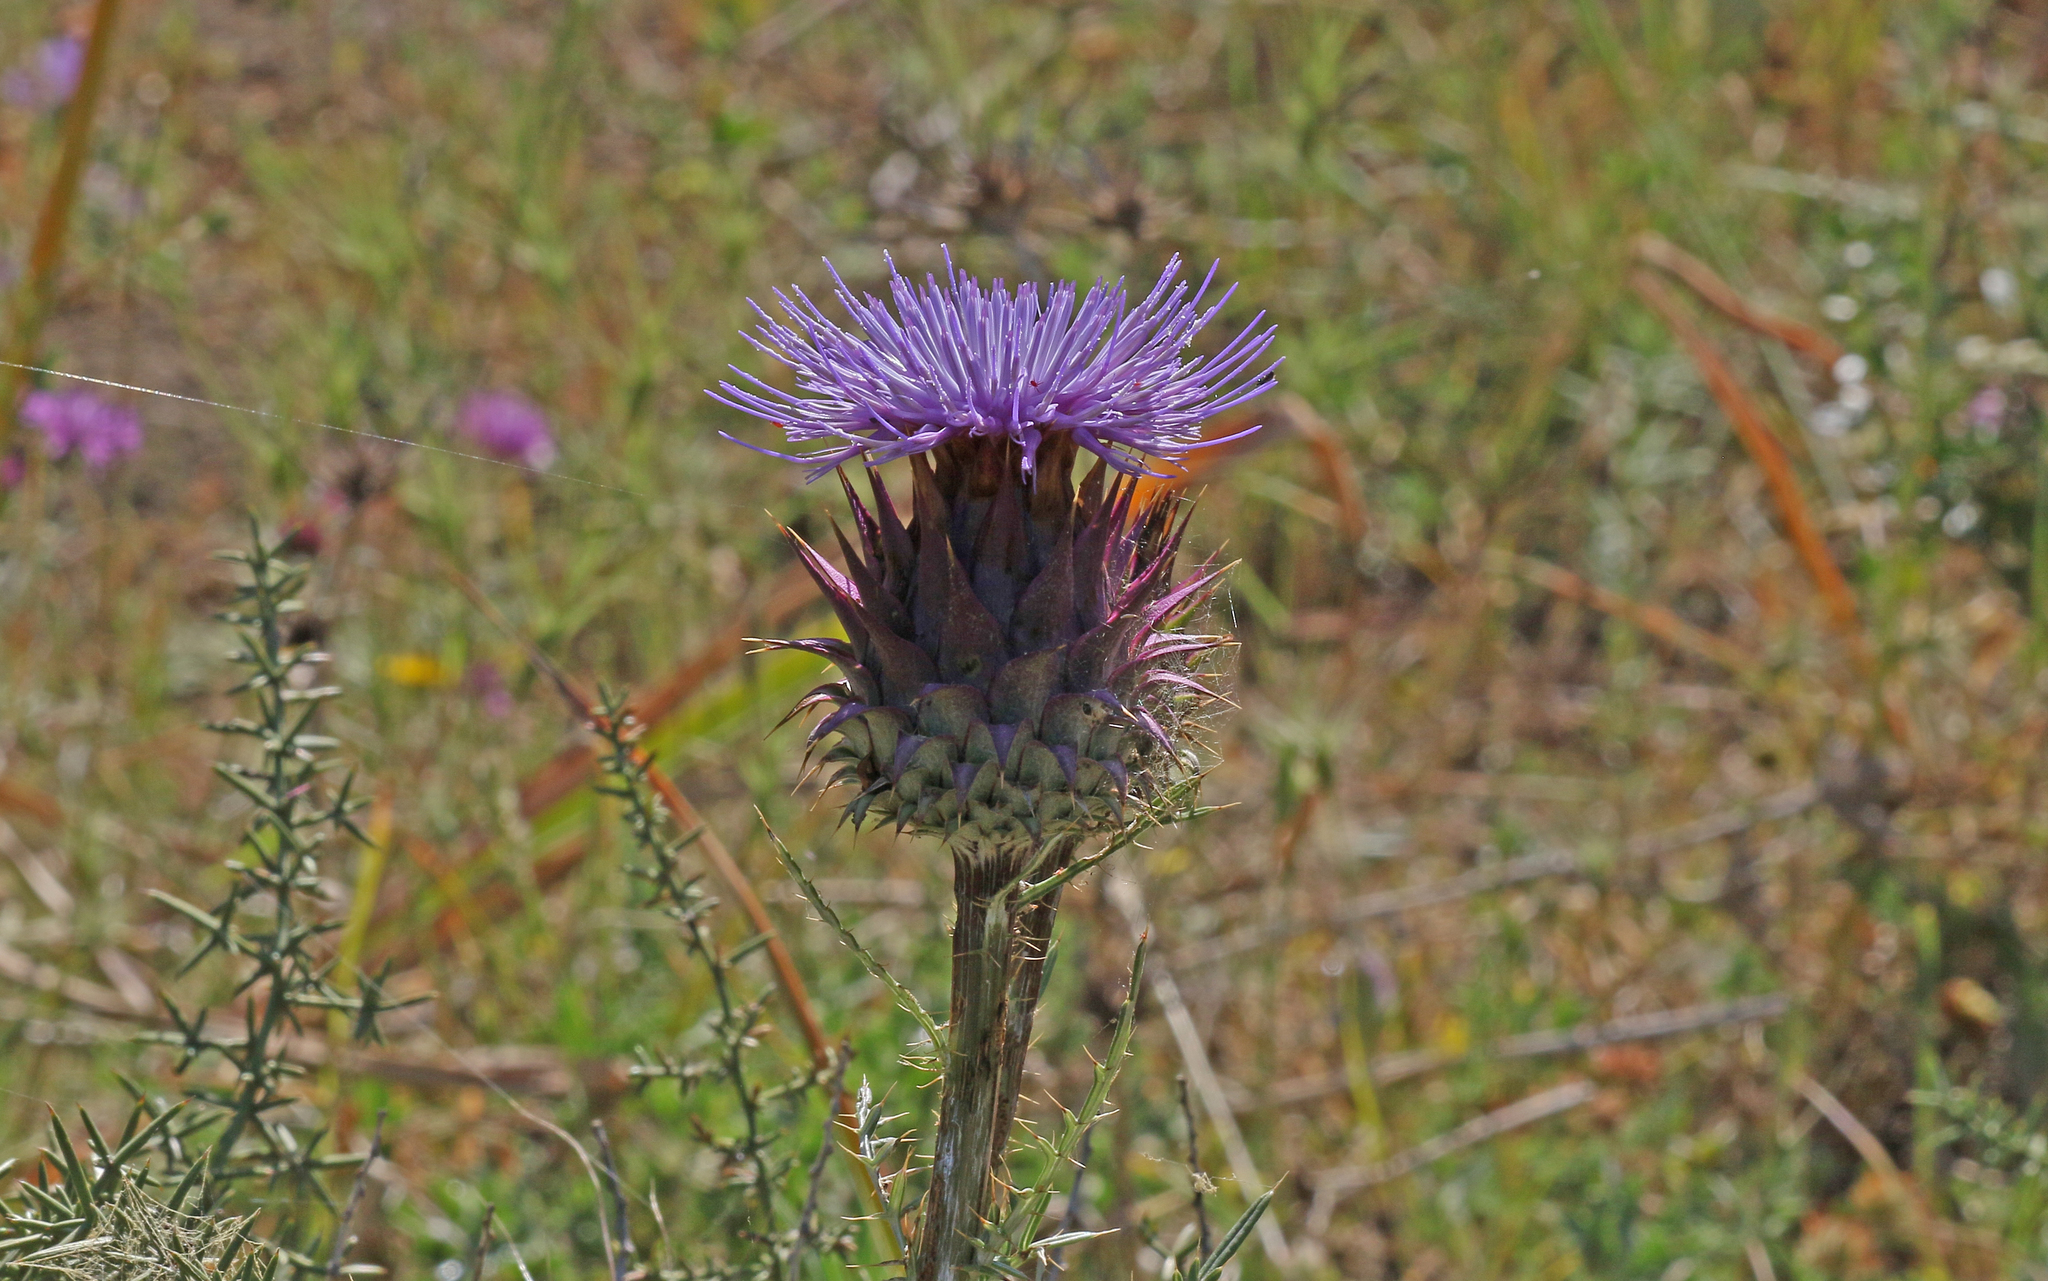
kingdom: Plantae
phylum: Tracheophyta
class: Magnoliopsida
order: Asterales
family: Asteraceae
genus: Cynara
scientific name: Cynara cardunculus
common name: Globe artichoke
